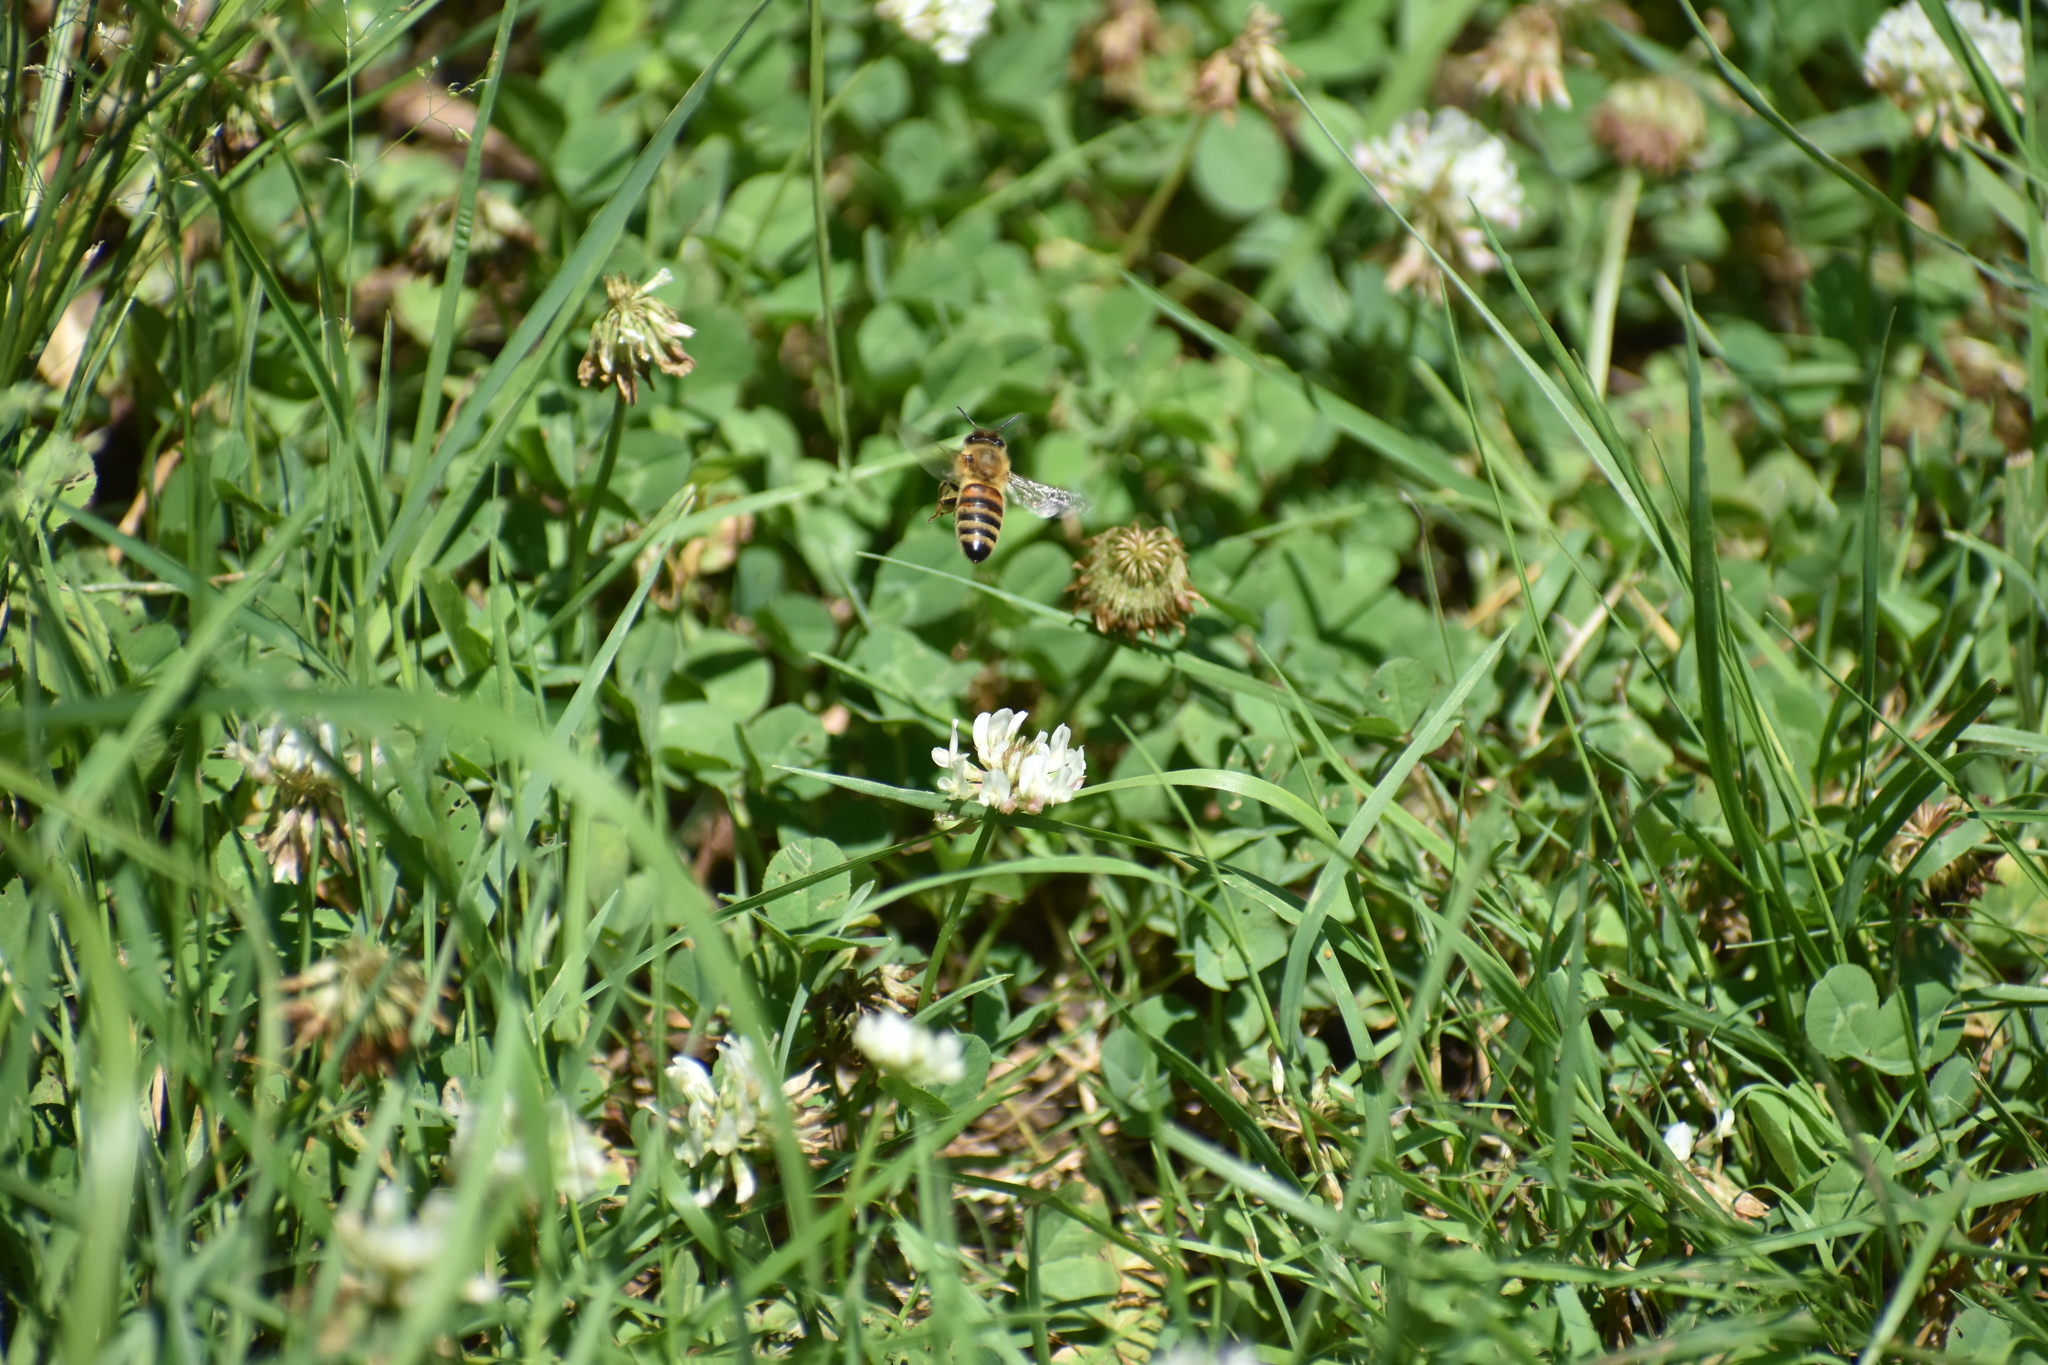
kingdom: Animalia
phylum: Arthropoda
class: Insecta
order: Hymenoptera
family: Apidae
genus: Apis
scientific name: Apis mellifera
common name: Honey bee
